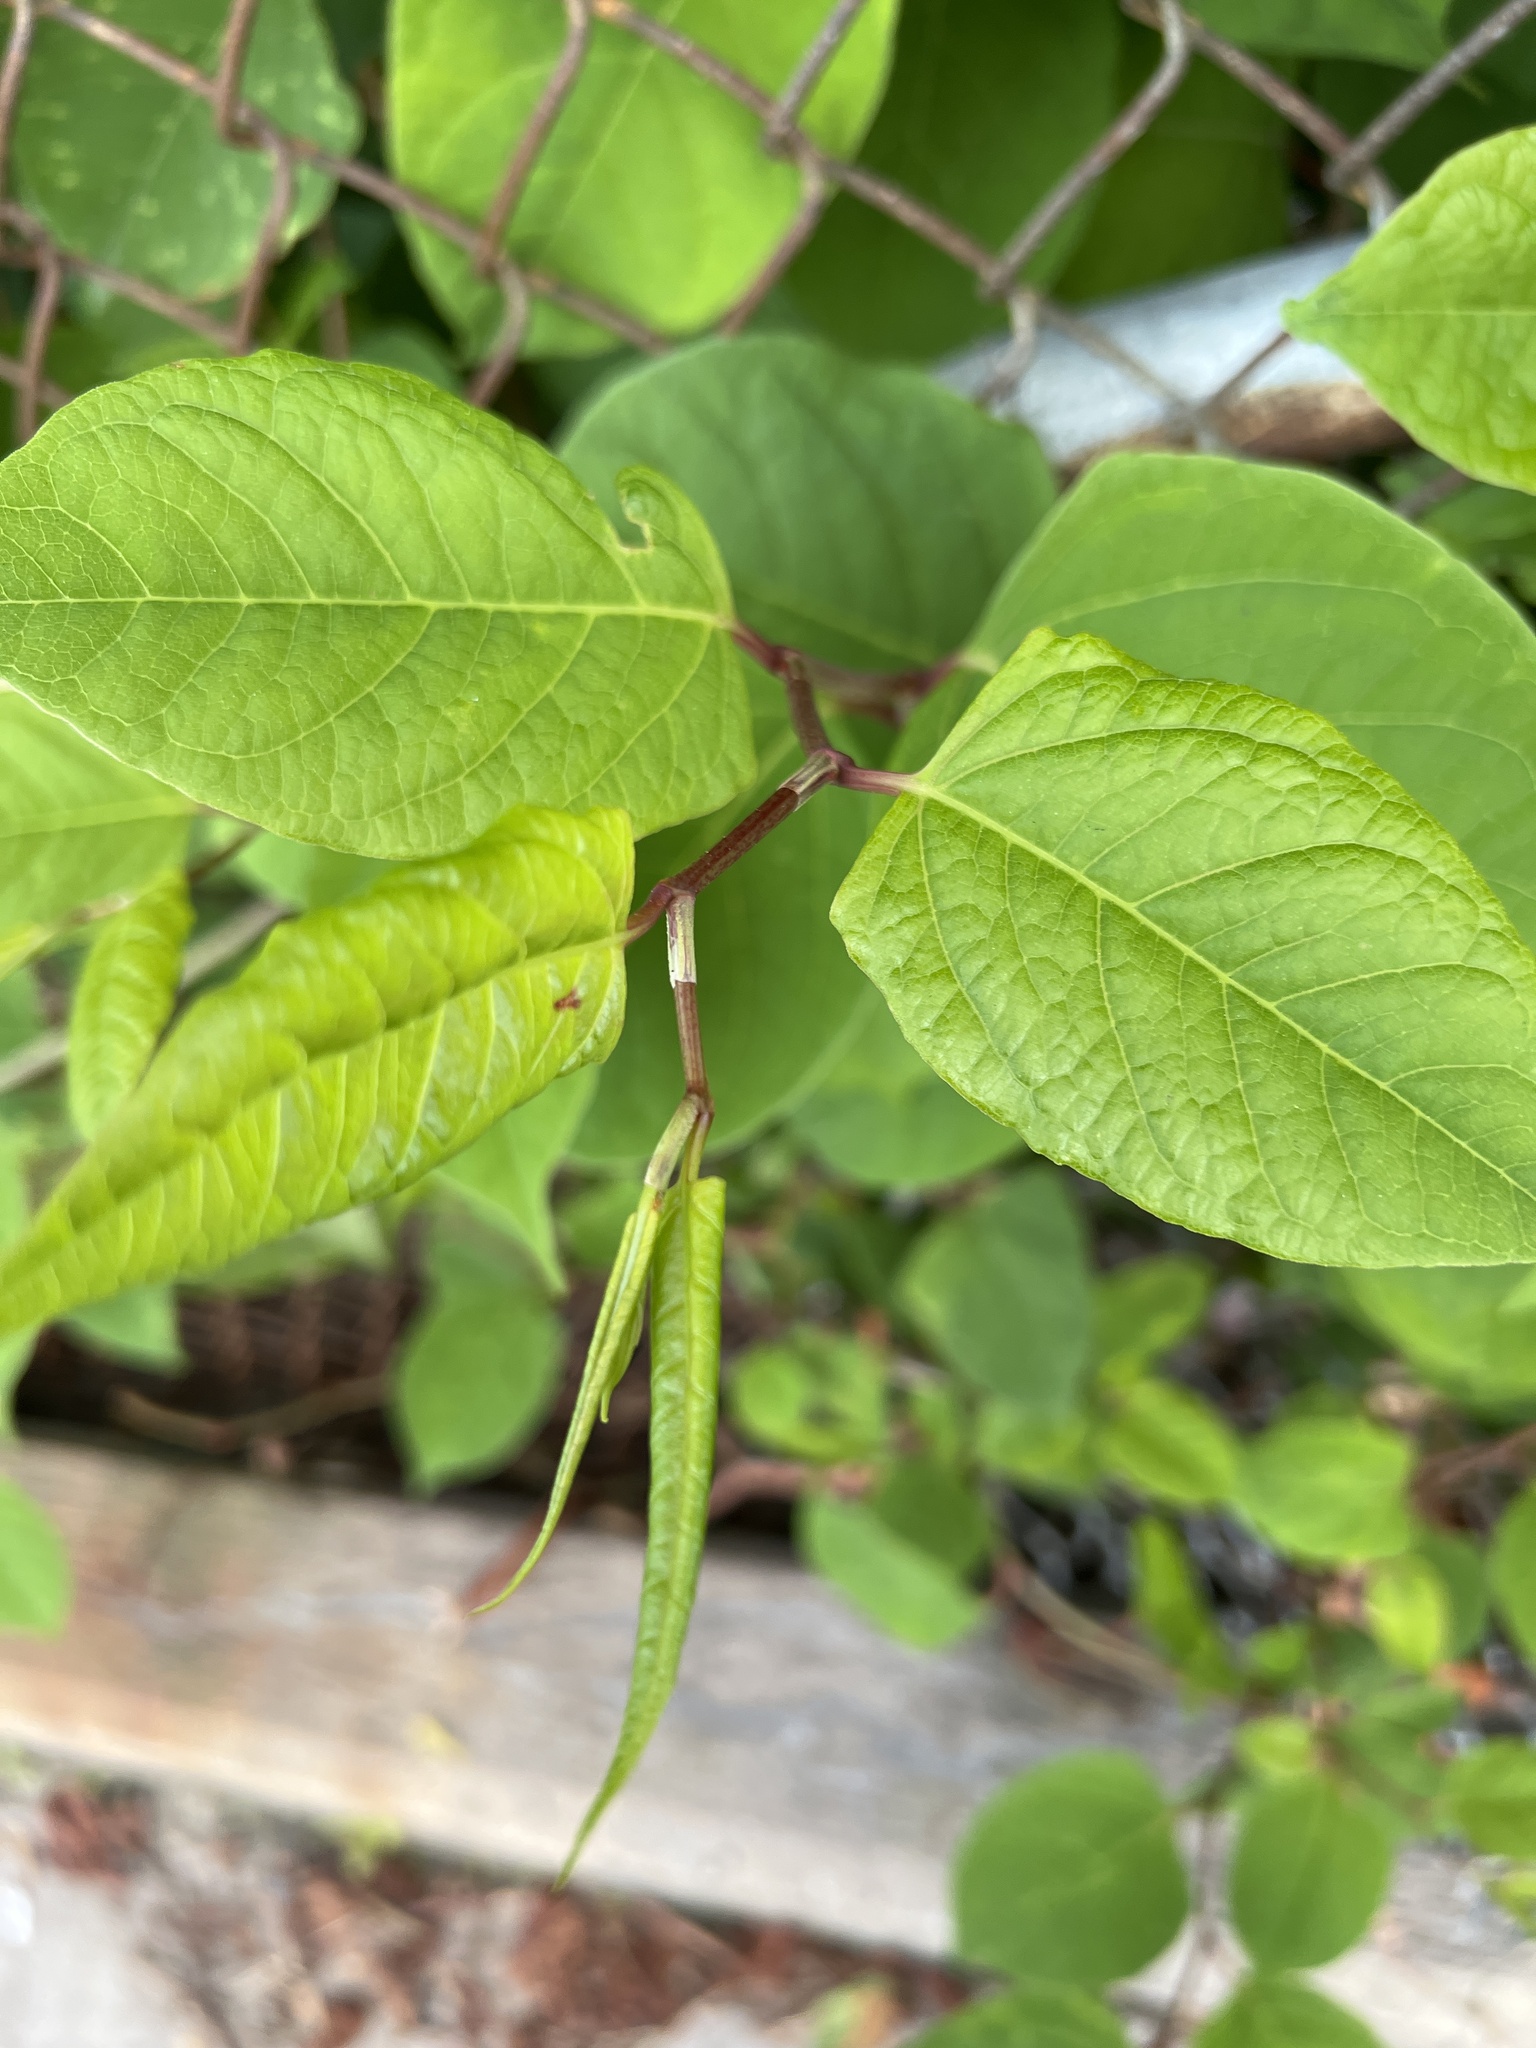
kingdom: Plantae
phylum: Tracheophyta
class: Magnoliopsida
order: Caryophyllales
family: Polygonaceae
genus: Reynoutria
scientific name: Reynoutria japonica
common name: Japanese knotweed
